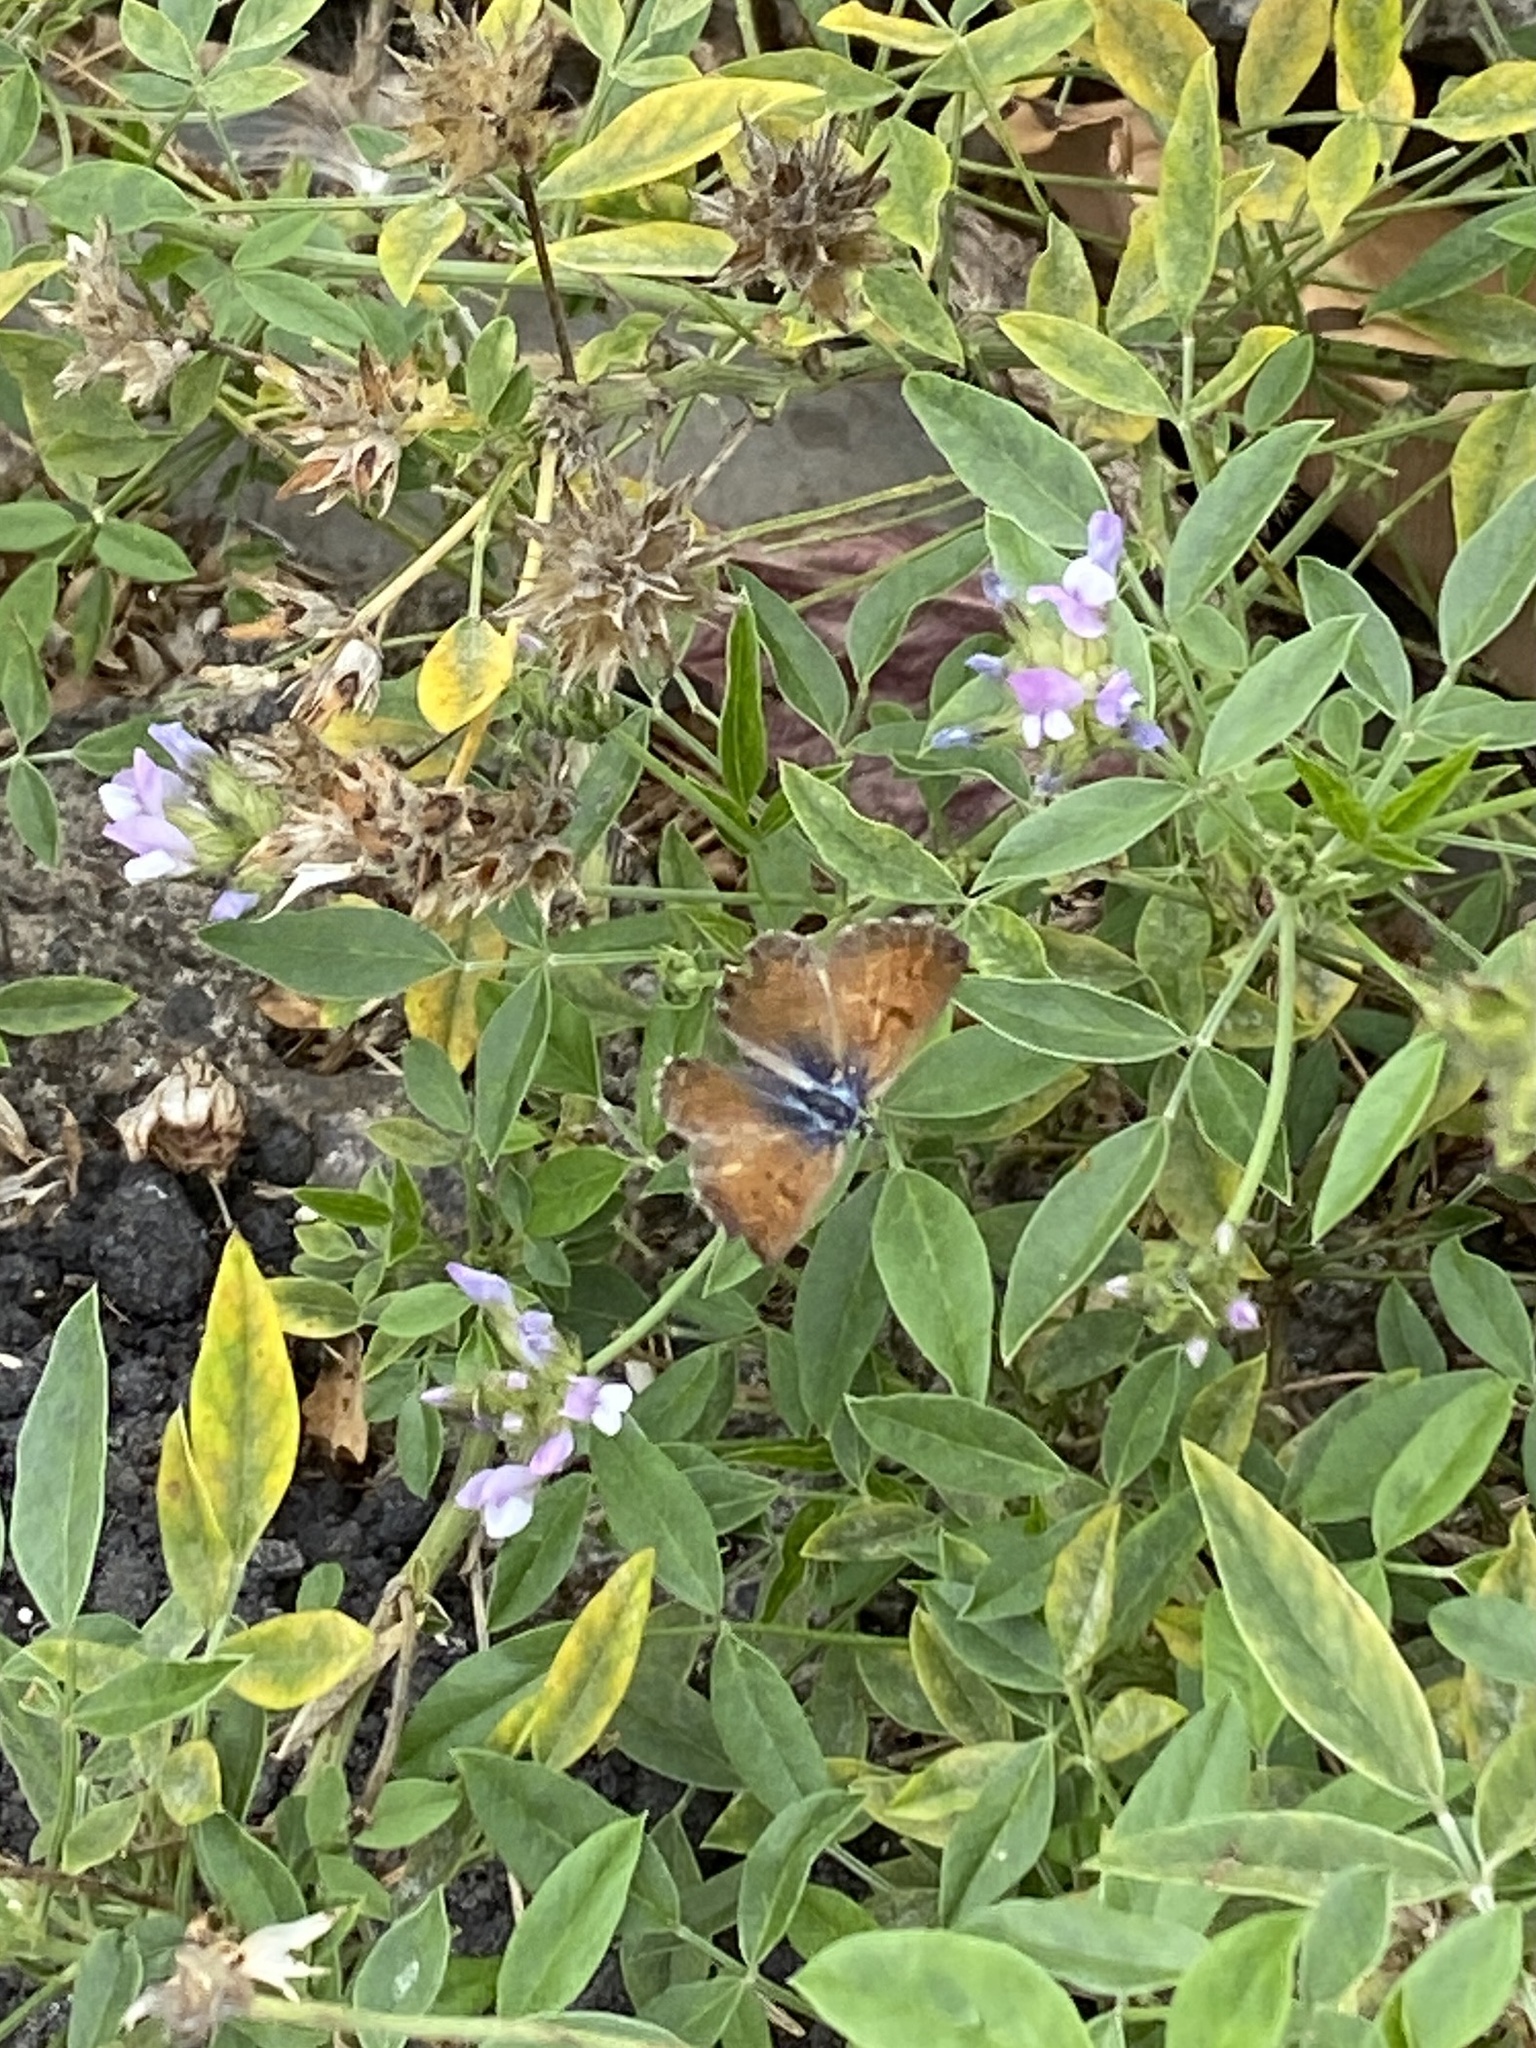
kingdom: Animalia
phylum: Arthropoda
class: Insecta
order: Lepidoptera
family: Lycaenidae
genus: Cyclyrius
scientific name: Cyclyrius webbianus
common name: Canary blue
